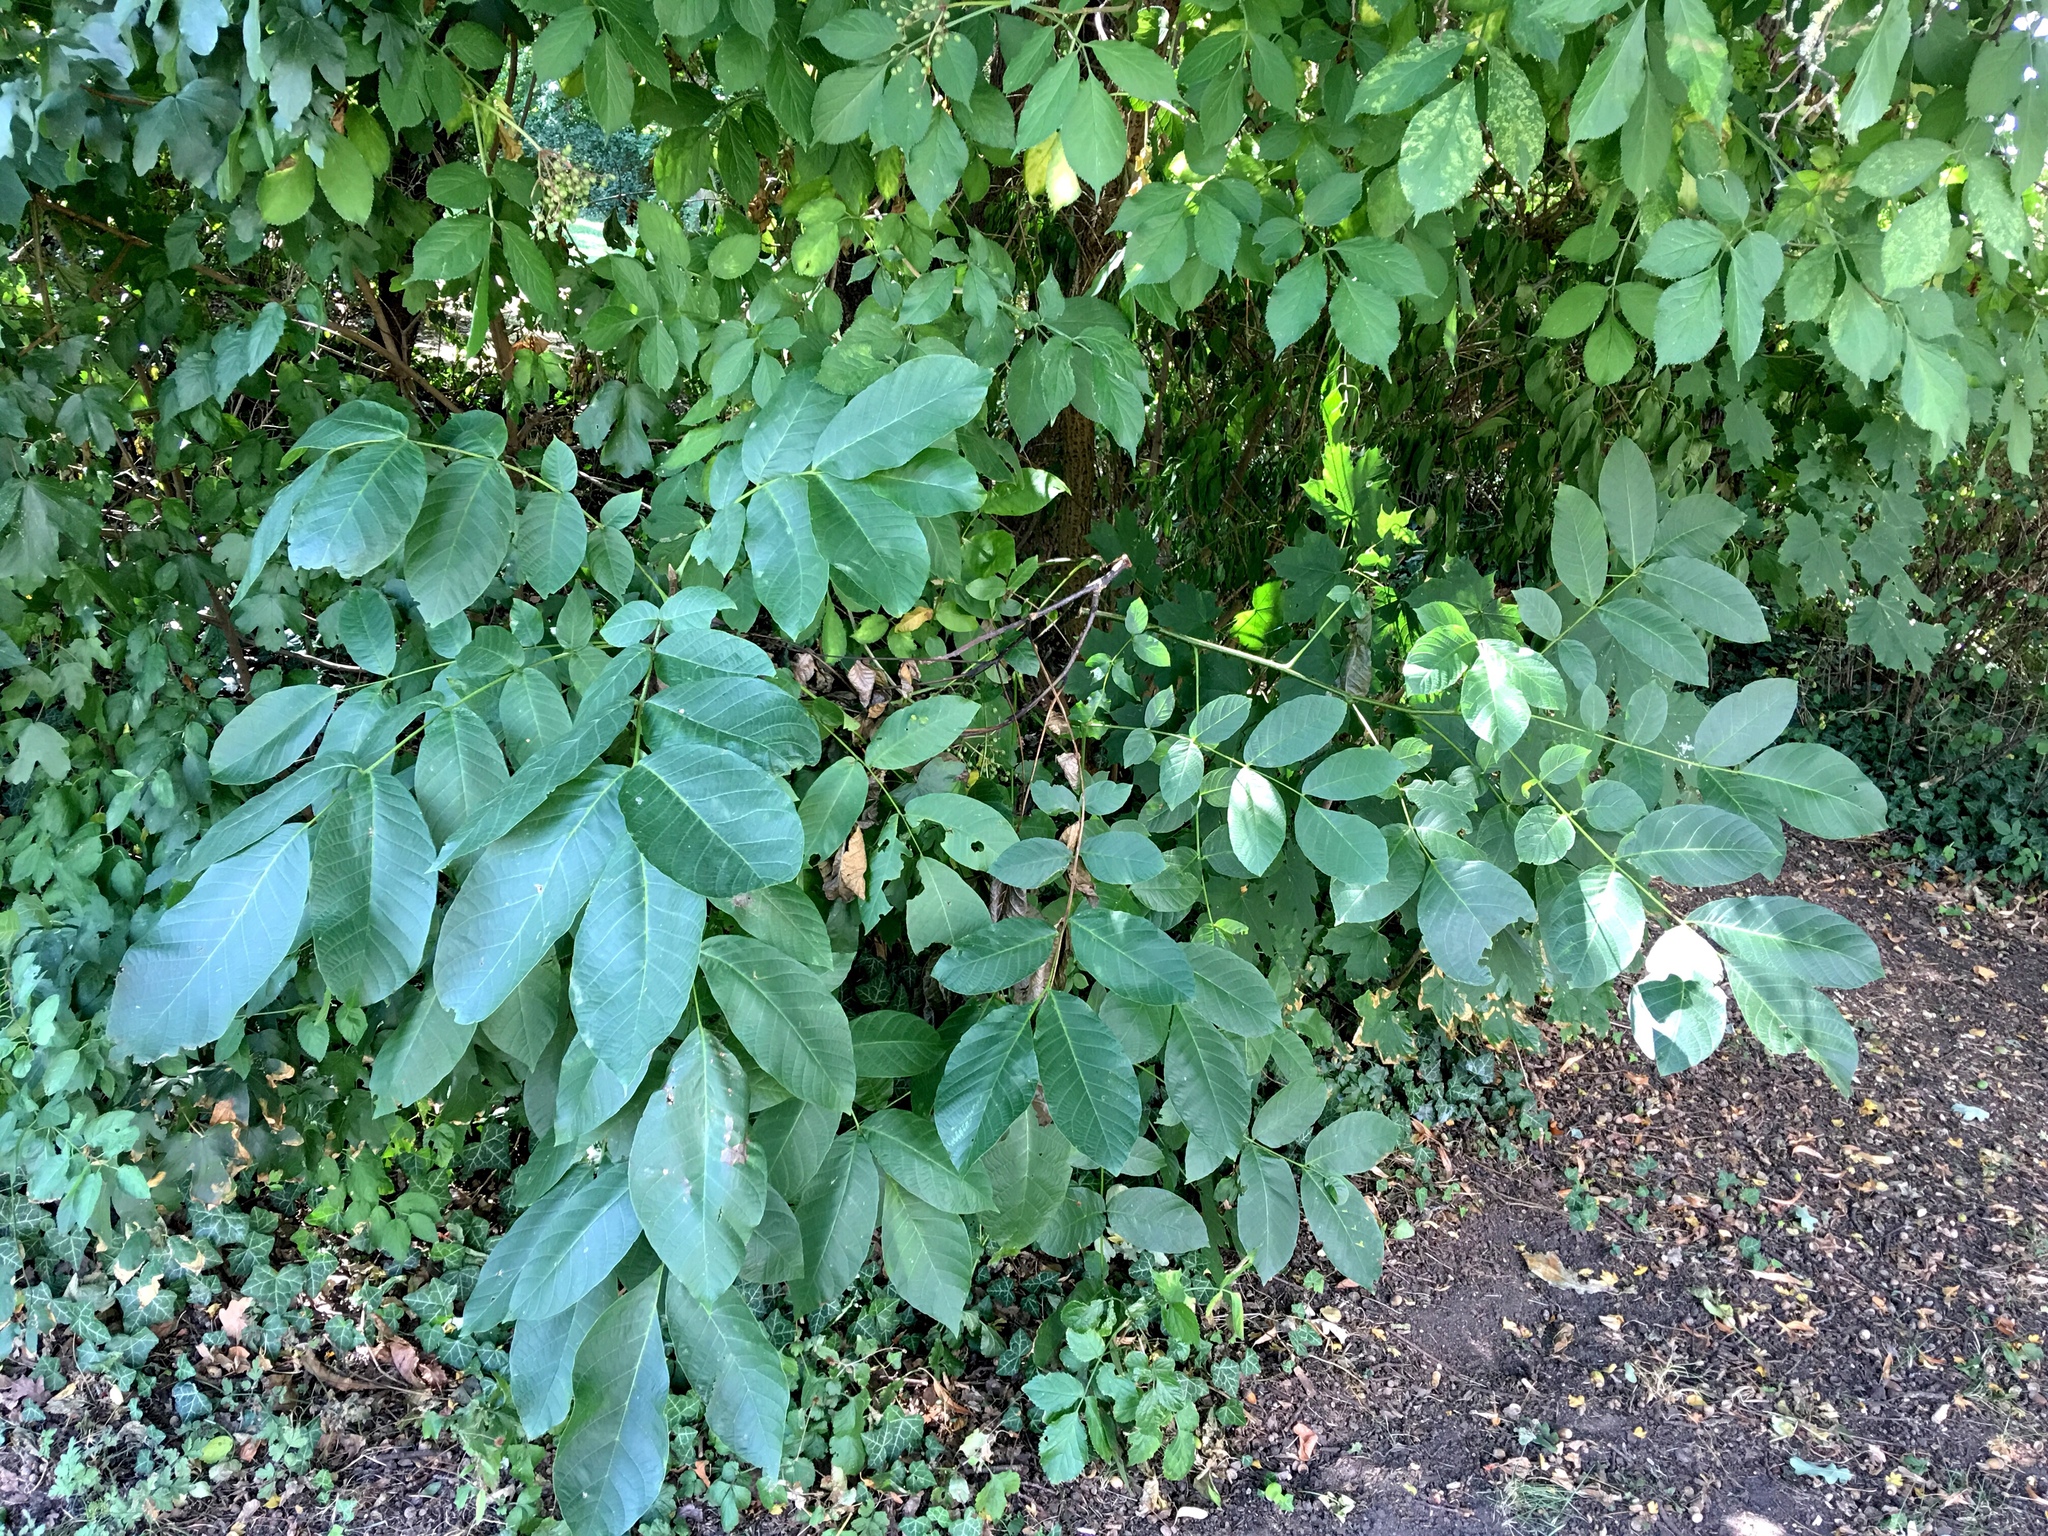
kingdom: Plantae
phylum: Tracheophyta
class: Magnoliopsida
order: Fagales
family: Juglandaceae
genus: Juglans
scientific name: Juglans regia
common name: Walnut
